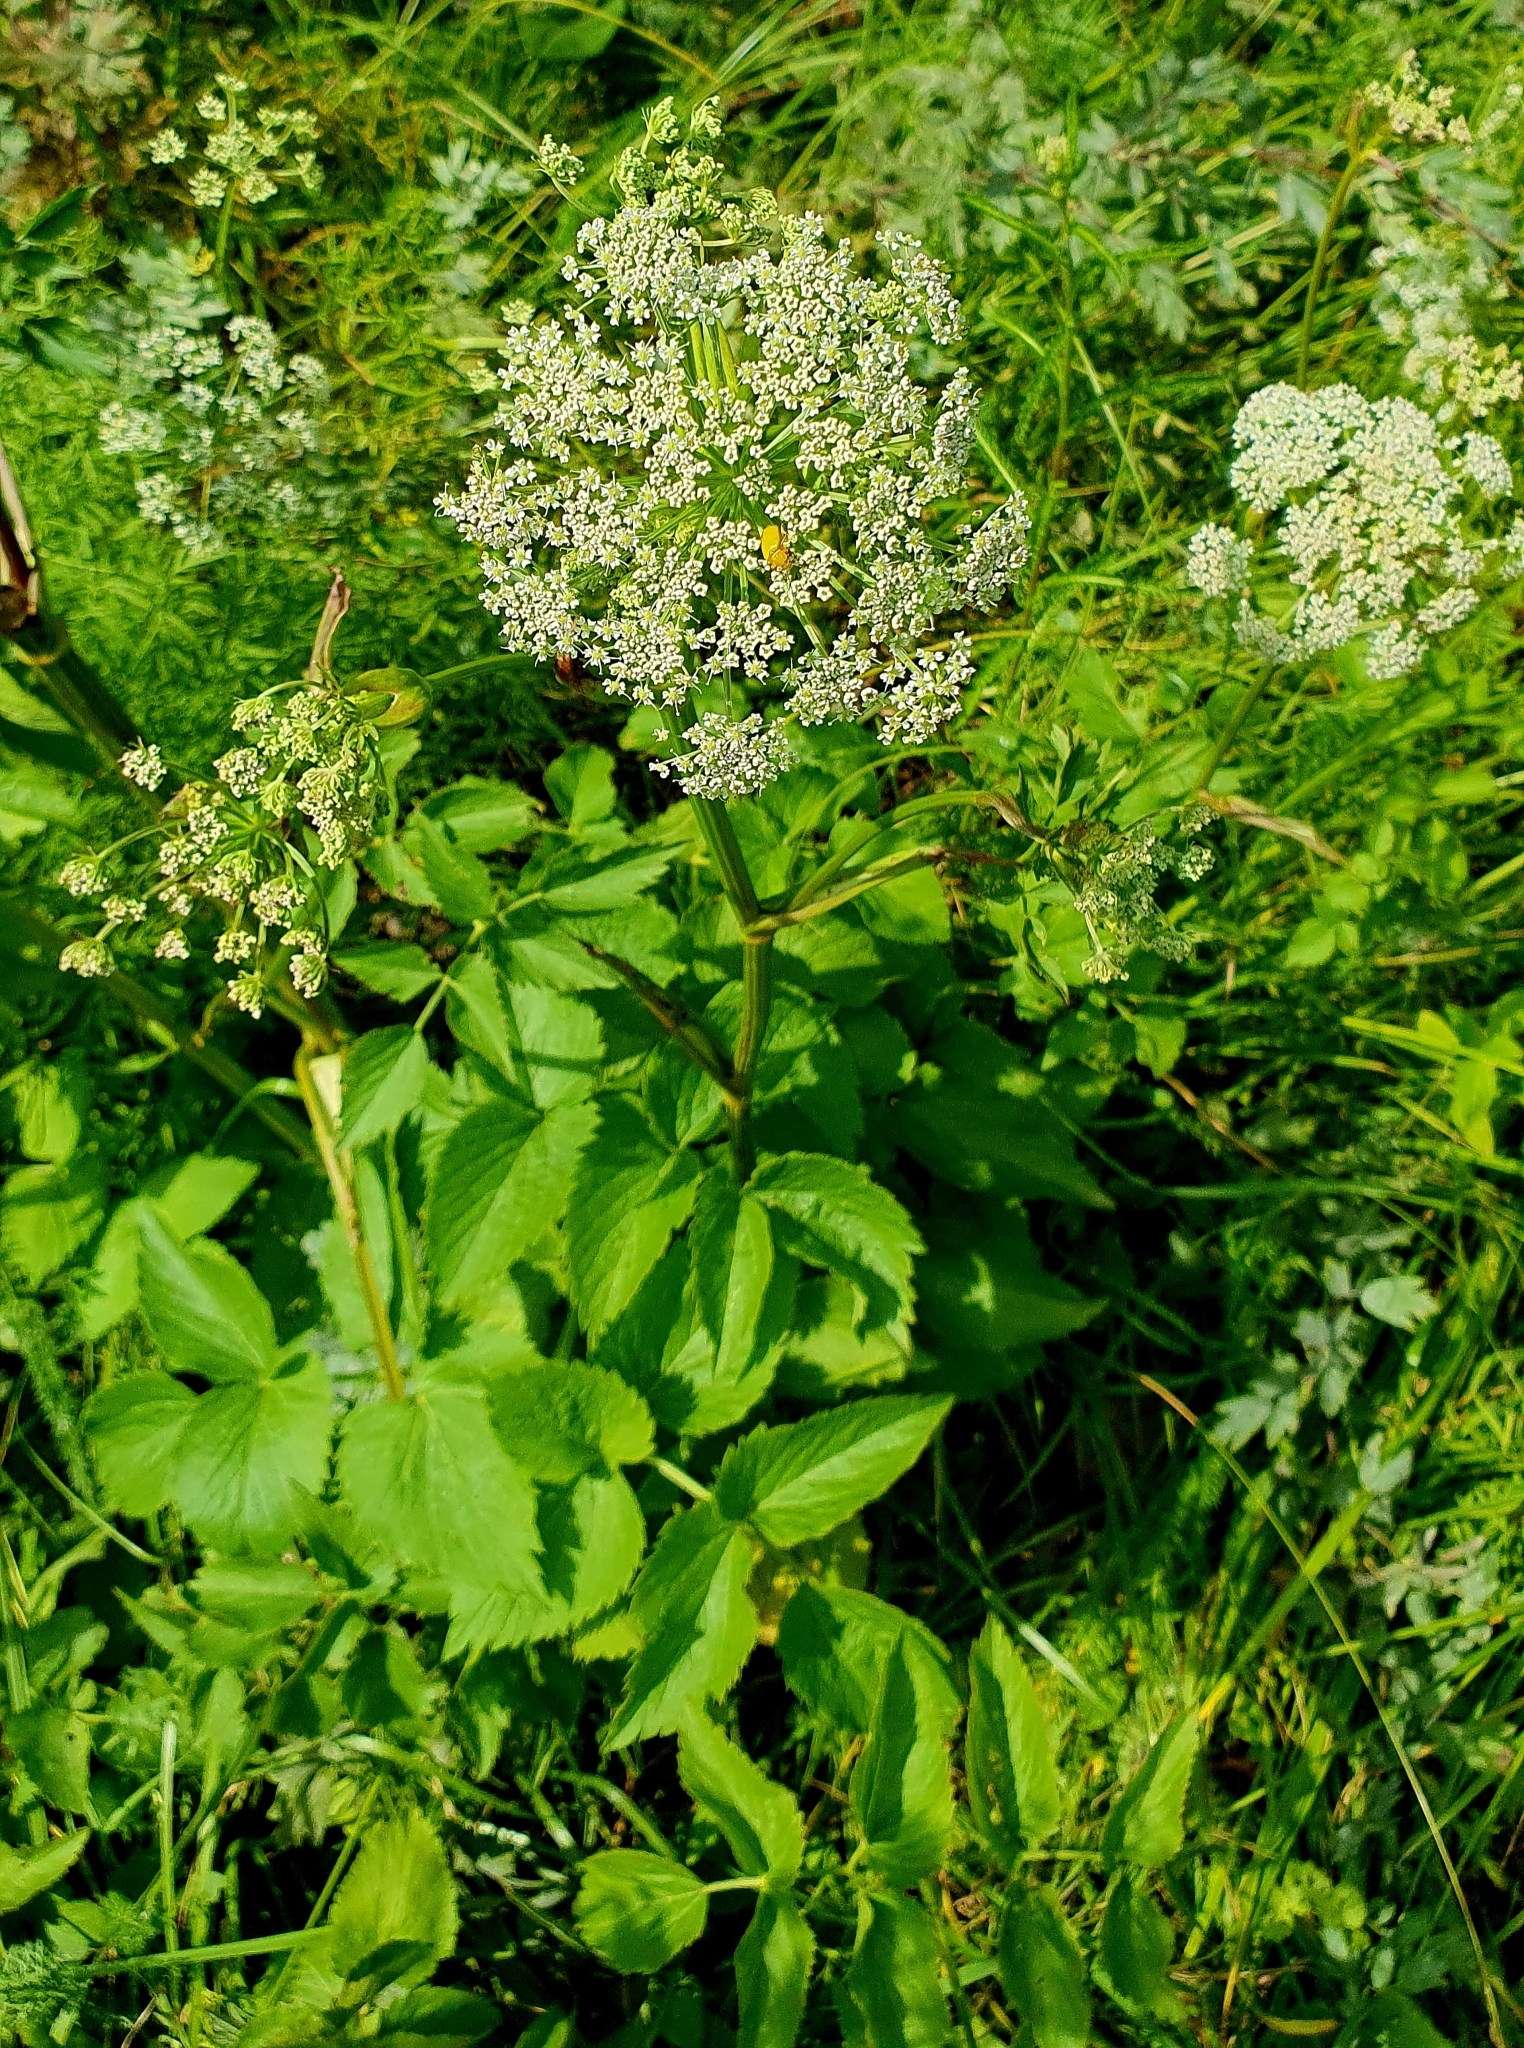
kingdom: Plantae
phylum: Tracheophyta
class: Magnoliopsida
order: Apiales
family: Apiaceae
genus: Anthriscus
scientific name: Anthriscus sylvestris
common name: Cow parsley
